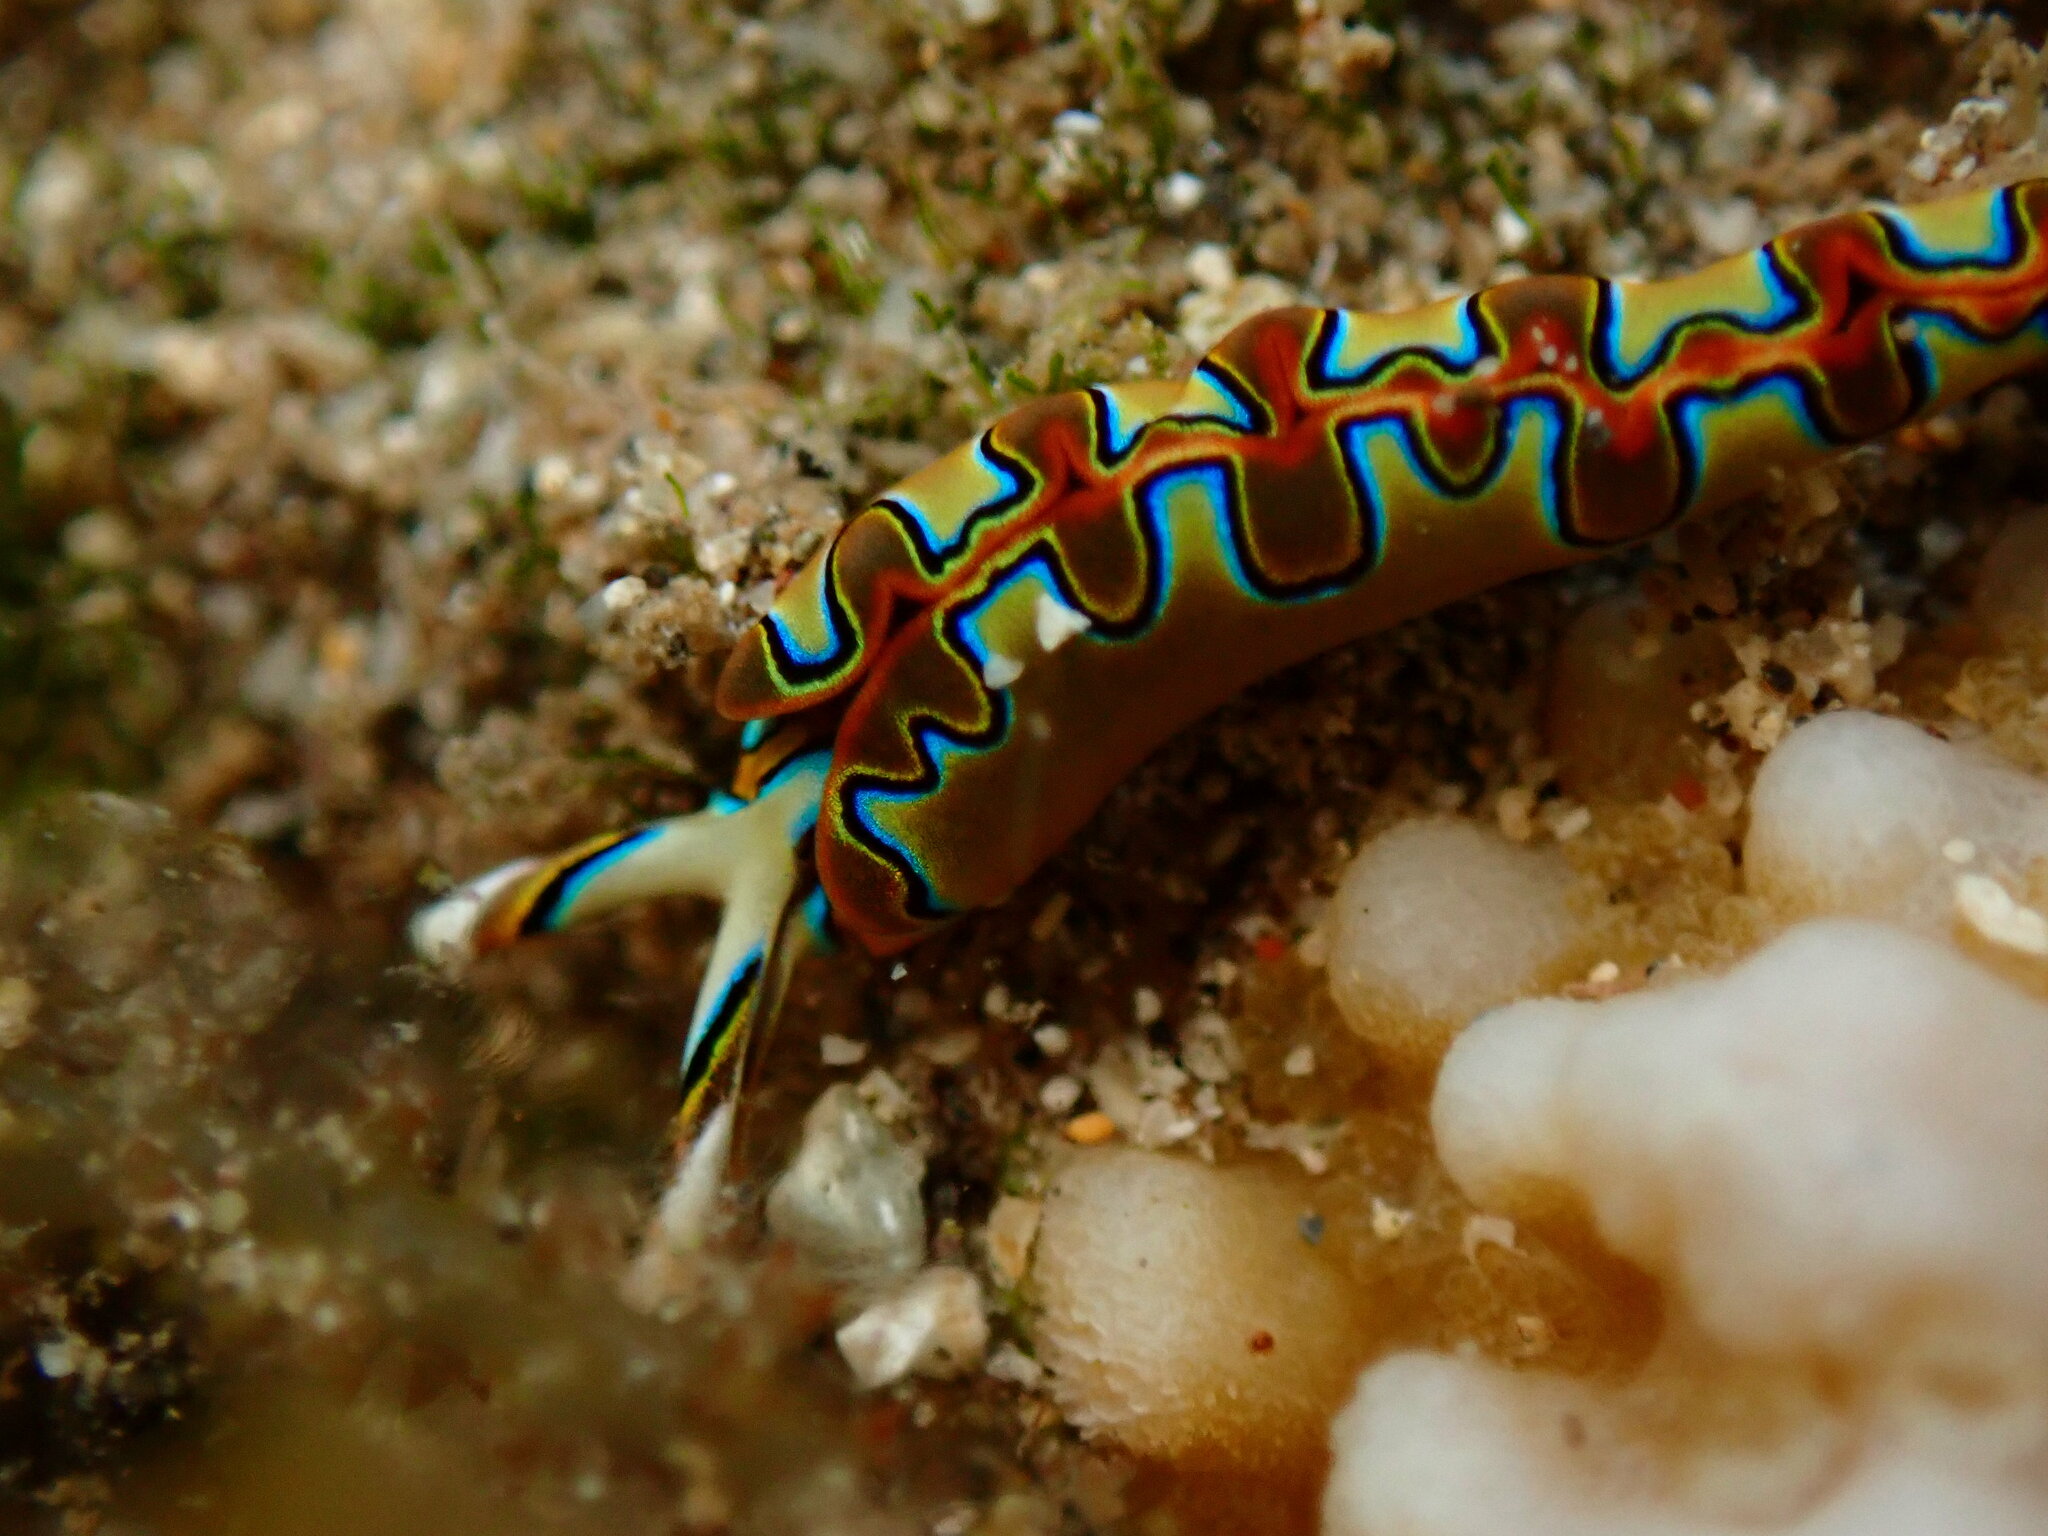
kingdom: Animalia
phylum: Mollusca
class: Gastropoda
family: Plakobranchidae
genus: Thuridilla
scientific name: Thuridilla neona
